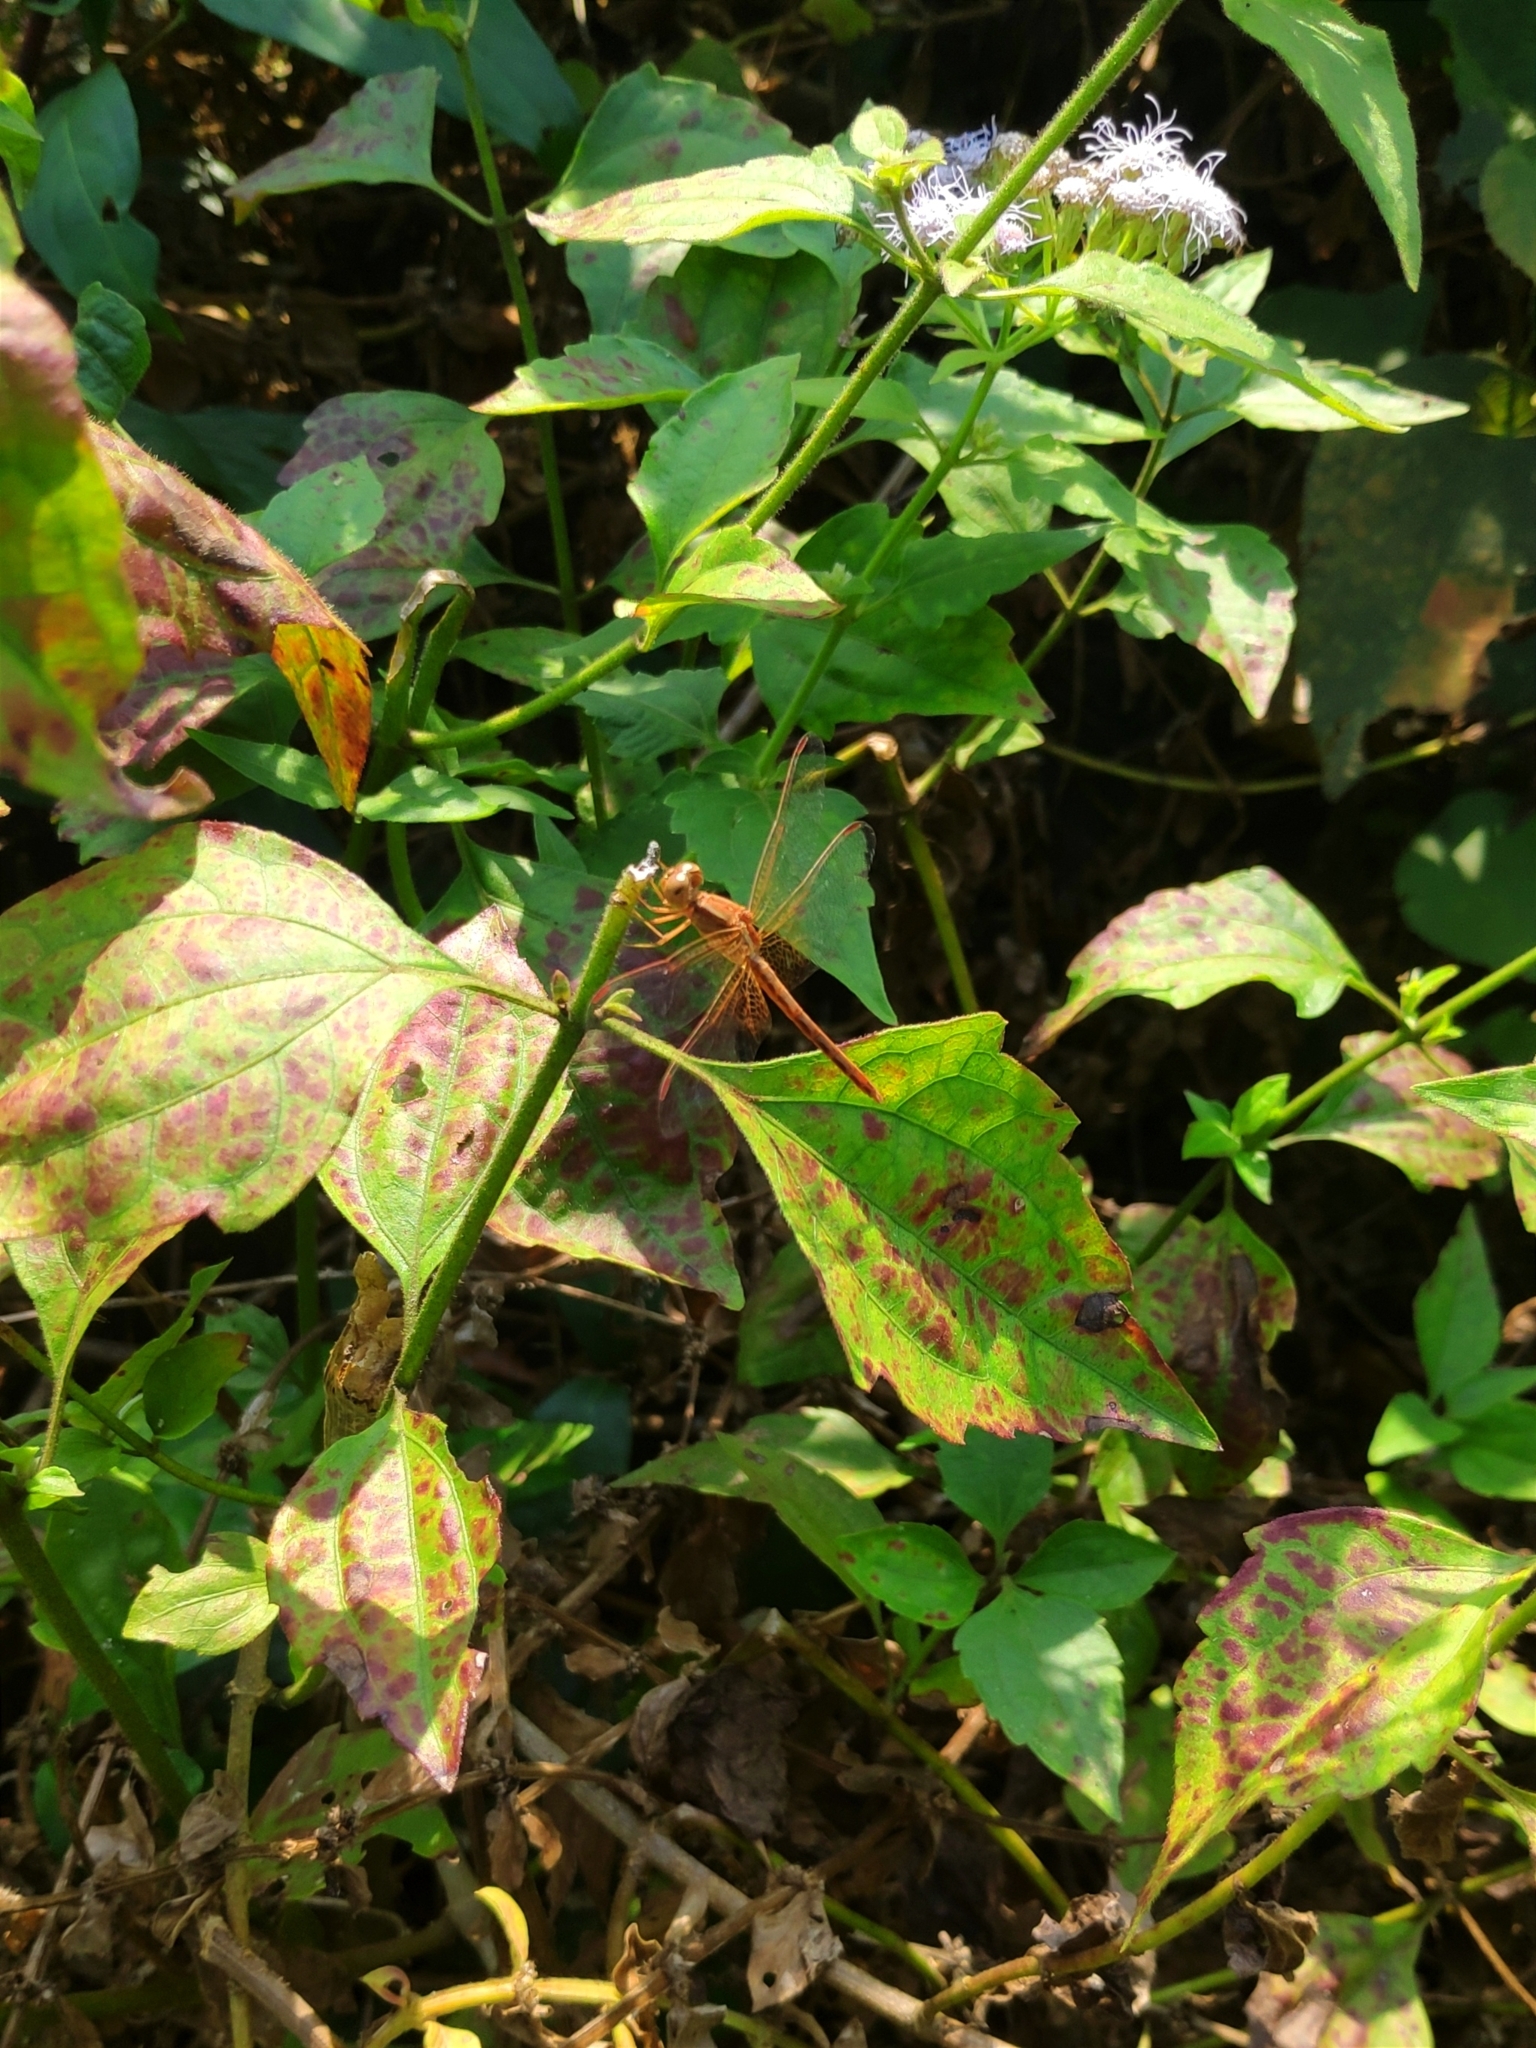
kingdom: Animalia
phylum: Arthropoda
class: Insecta
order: Odonata
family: Libellulidae
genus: Neurothemis
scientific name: Neurothemis intermedia
